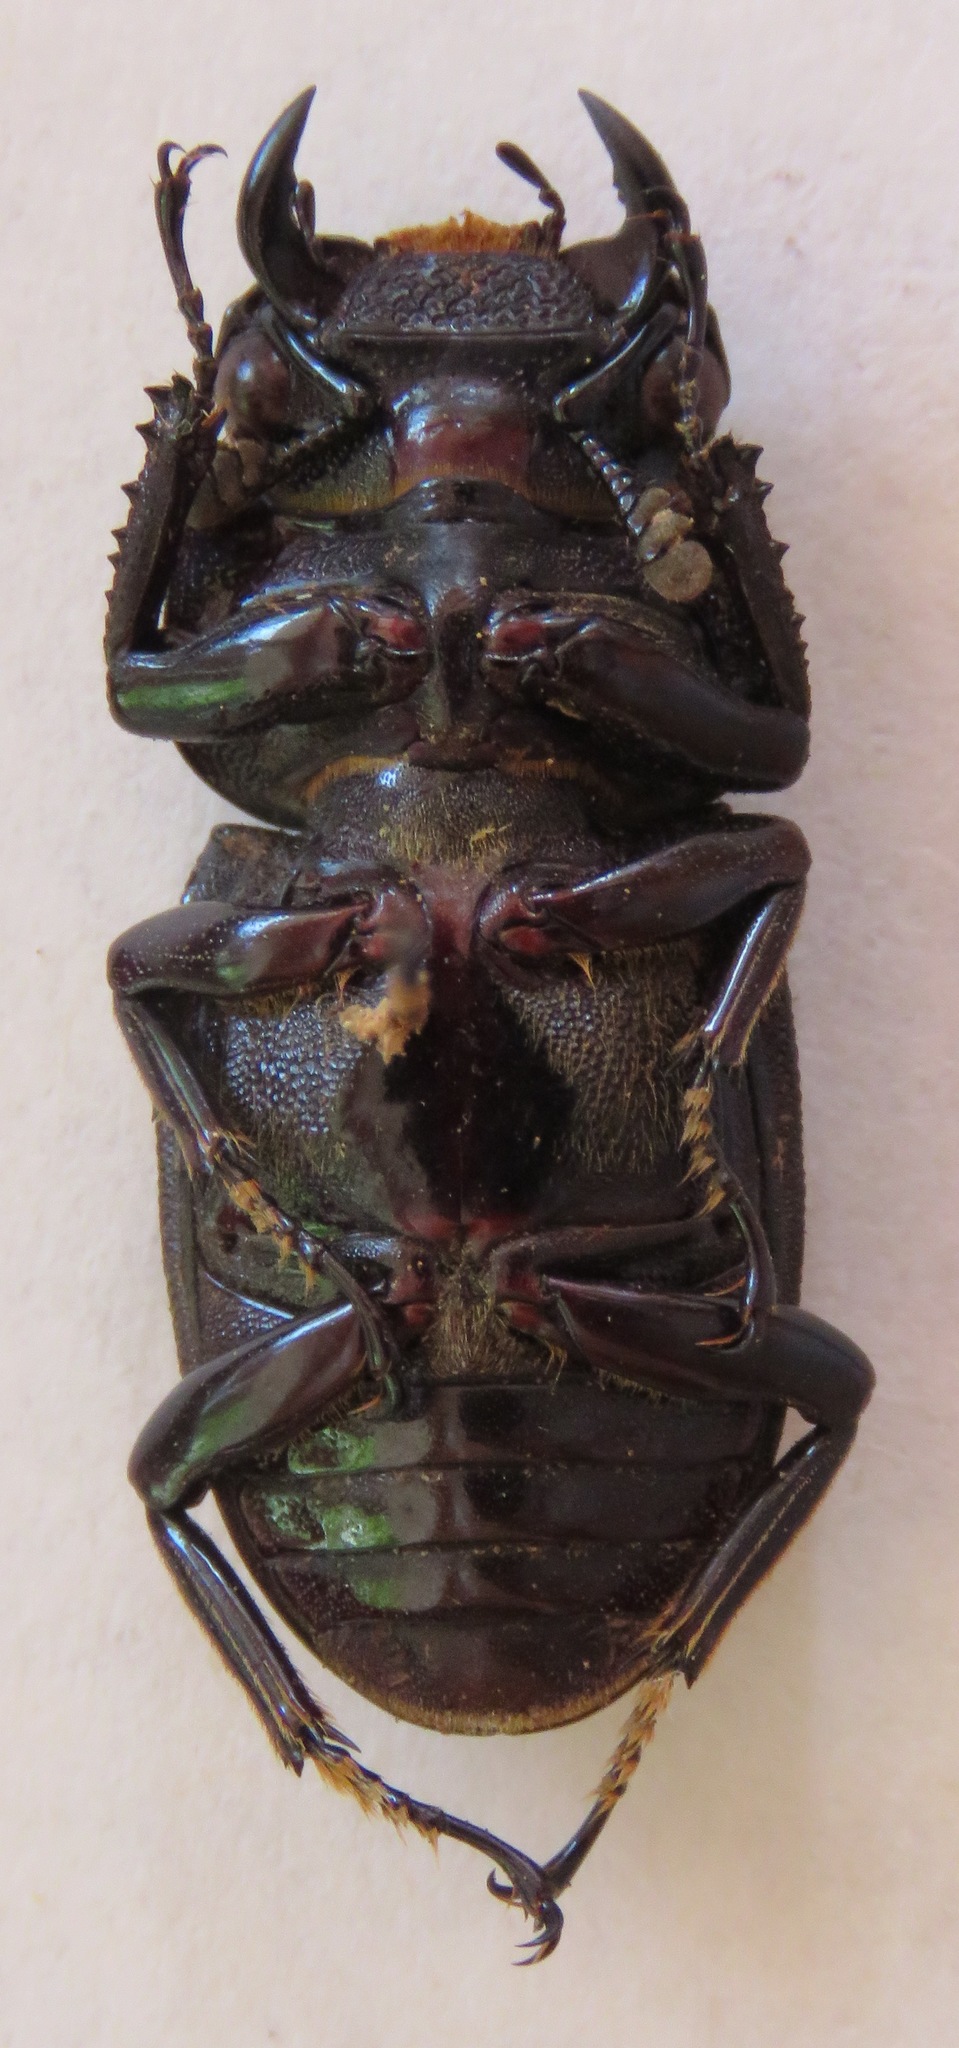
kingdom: Animalia
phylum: Arthropoda
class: Insecta
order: Coleoptera
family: Lucanidae
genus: Dorcus
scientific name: Dorcus curvidens
